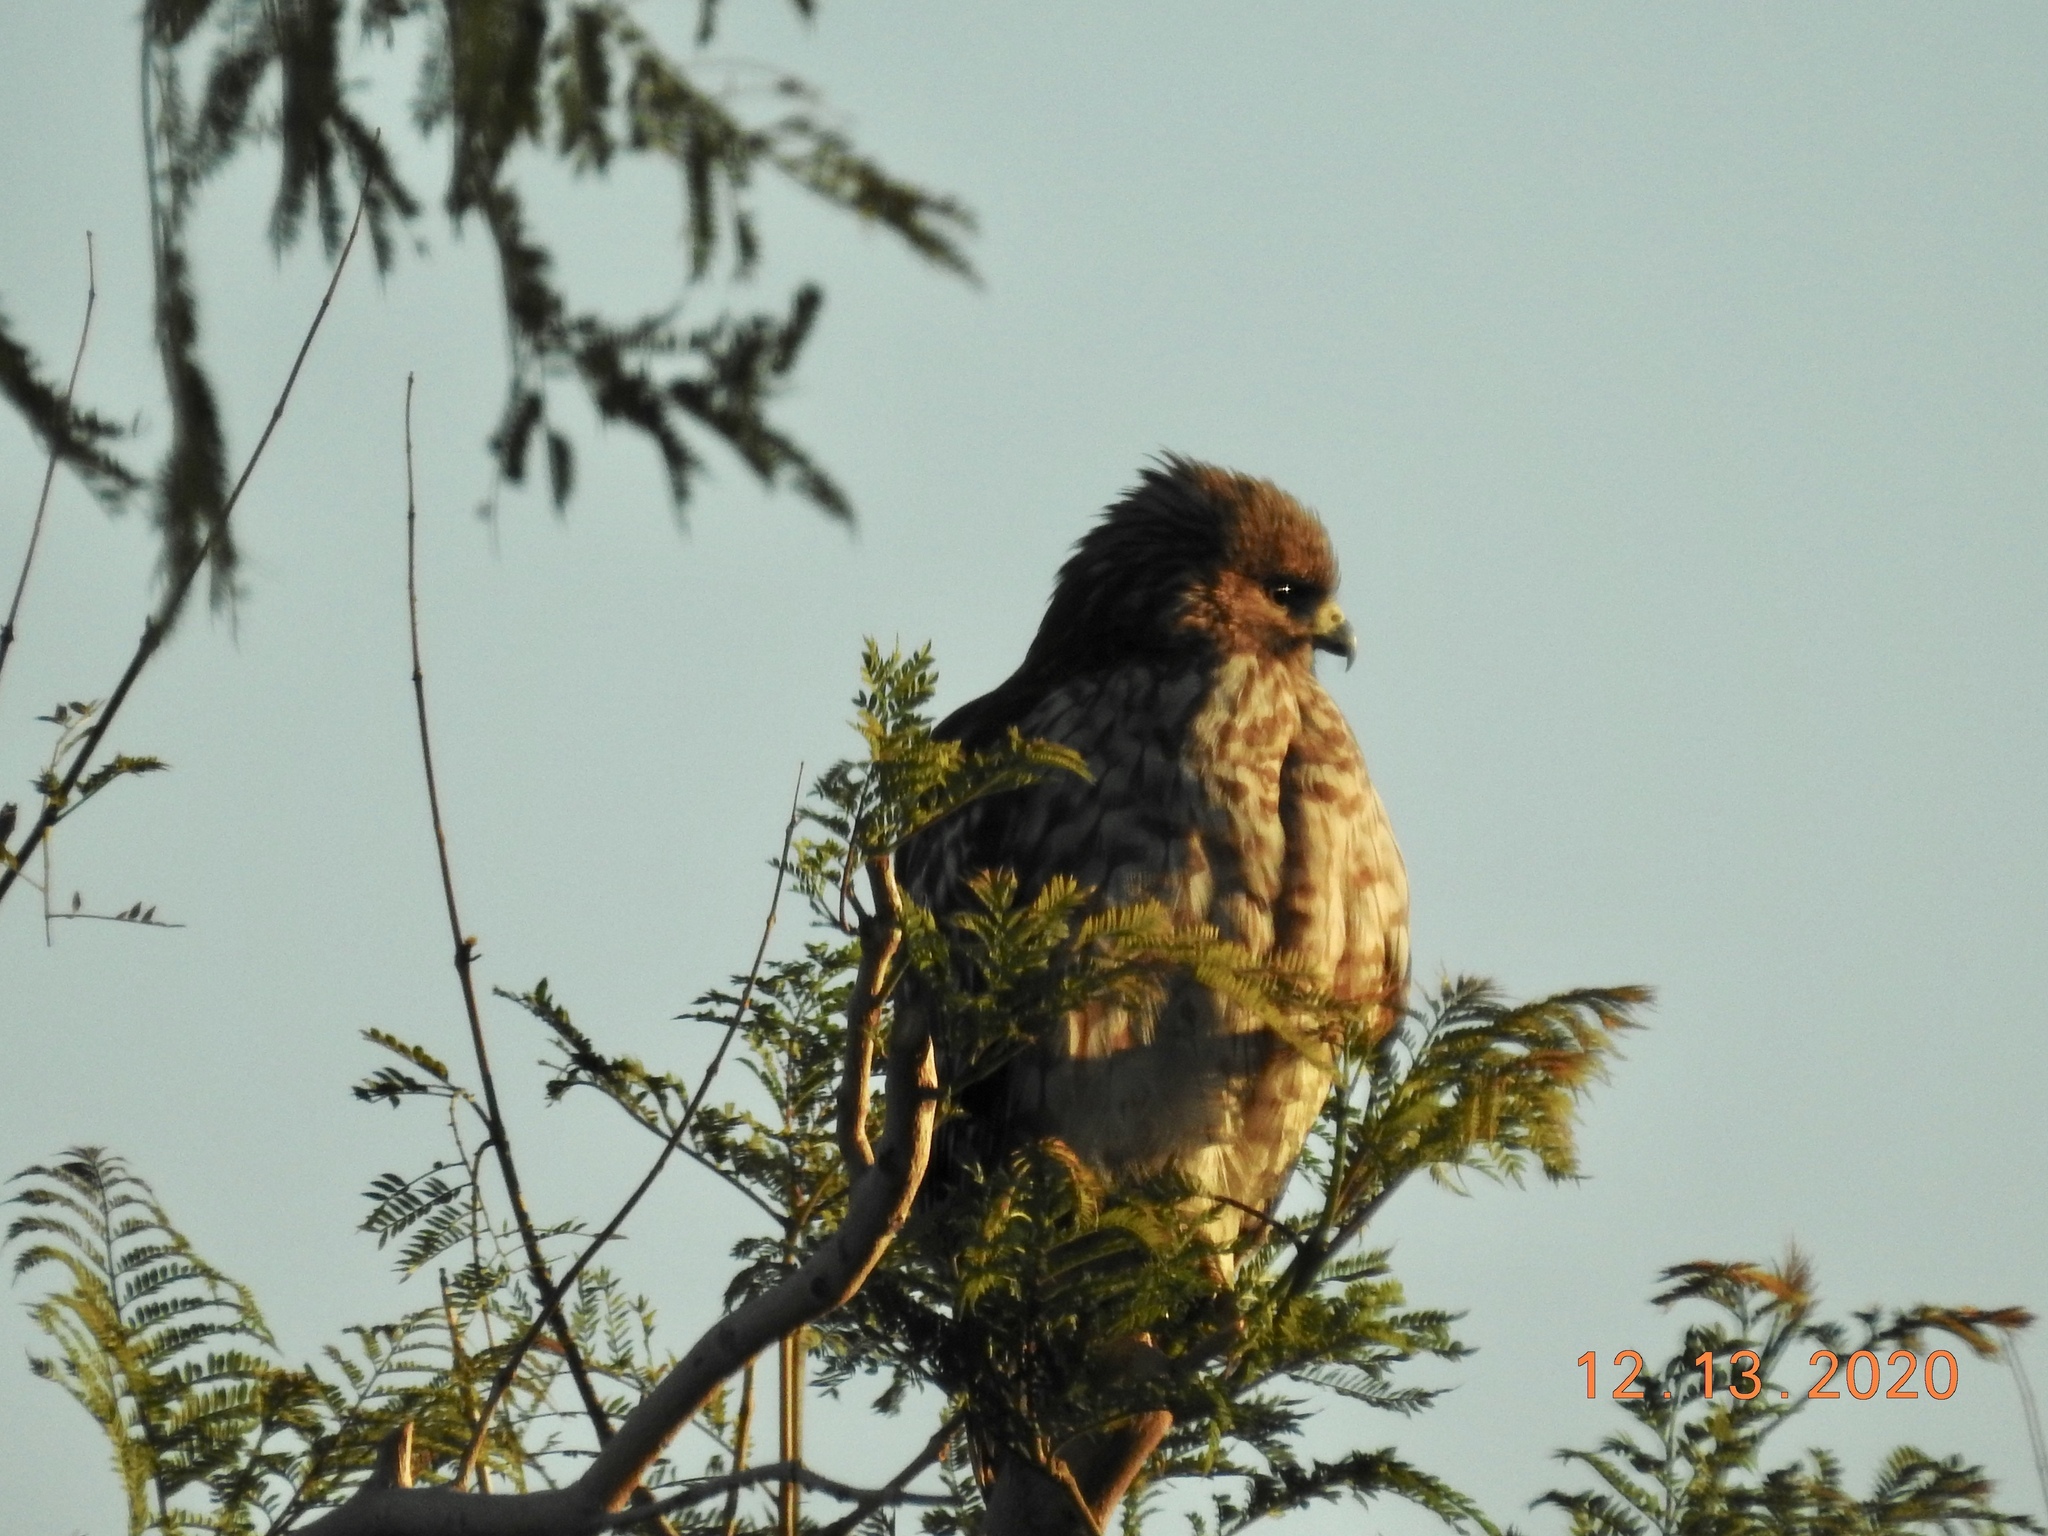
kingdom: Animalia
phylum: Chordata
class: Aves
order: Accipitriformes
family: Accipitridae
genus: Buteo
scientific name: Buteo lineatus
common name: Red-shouldered hawk
